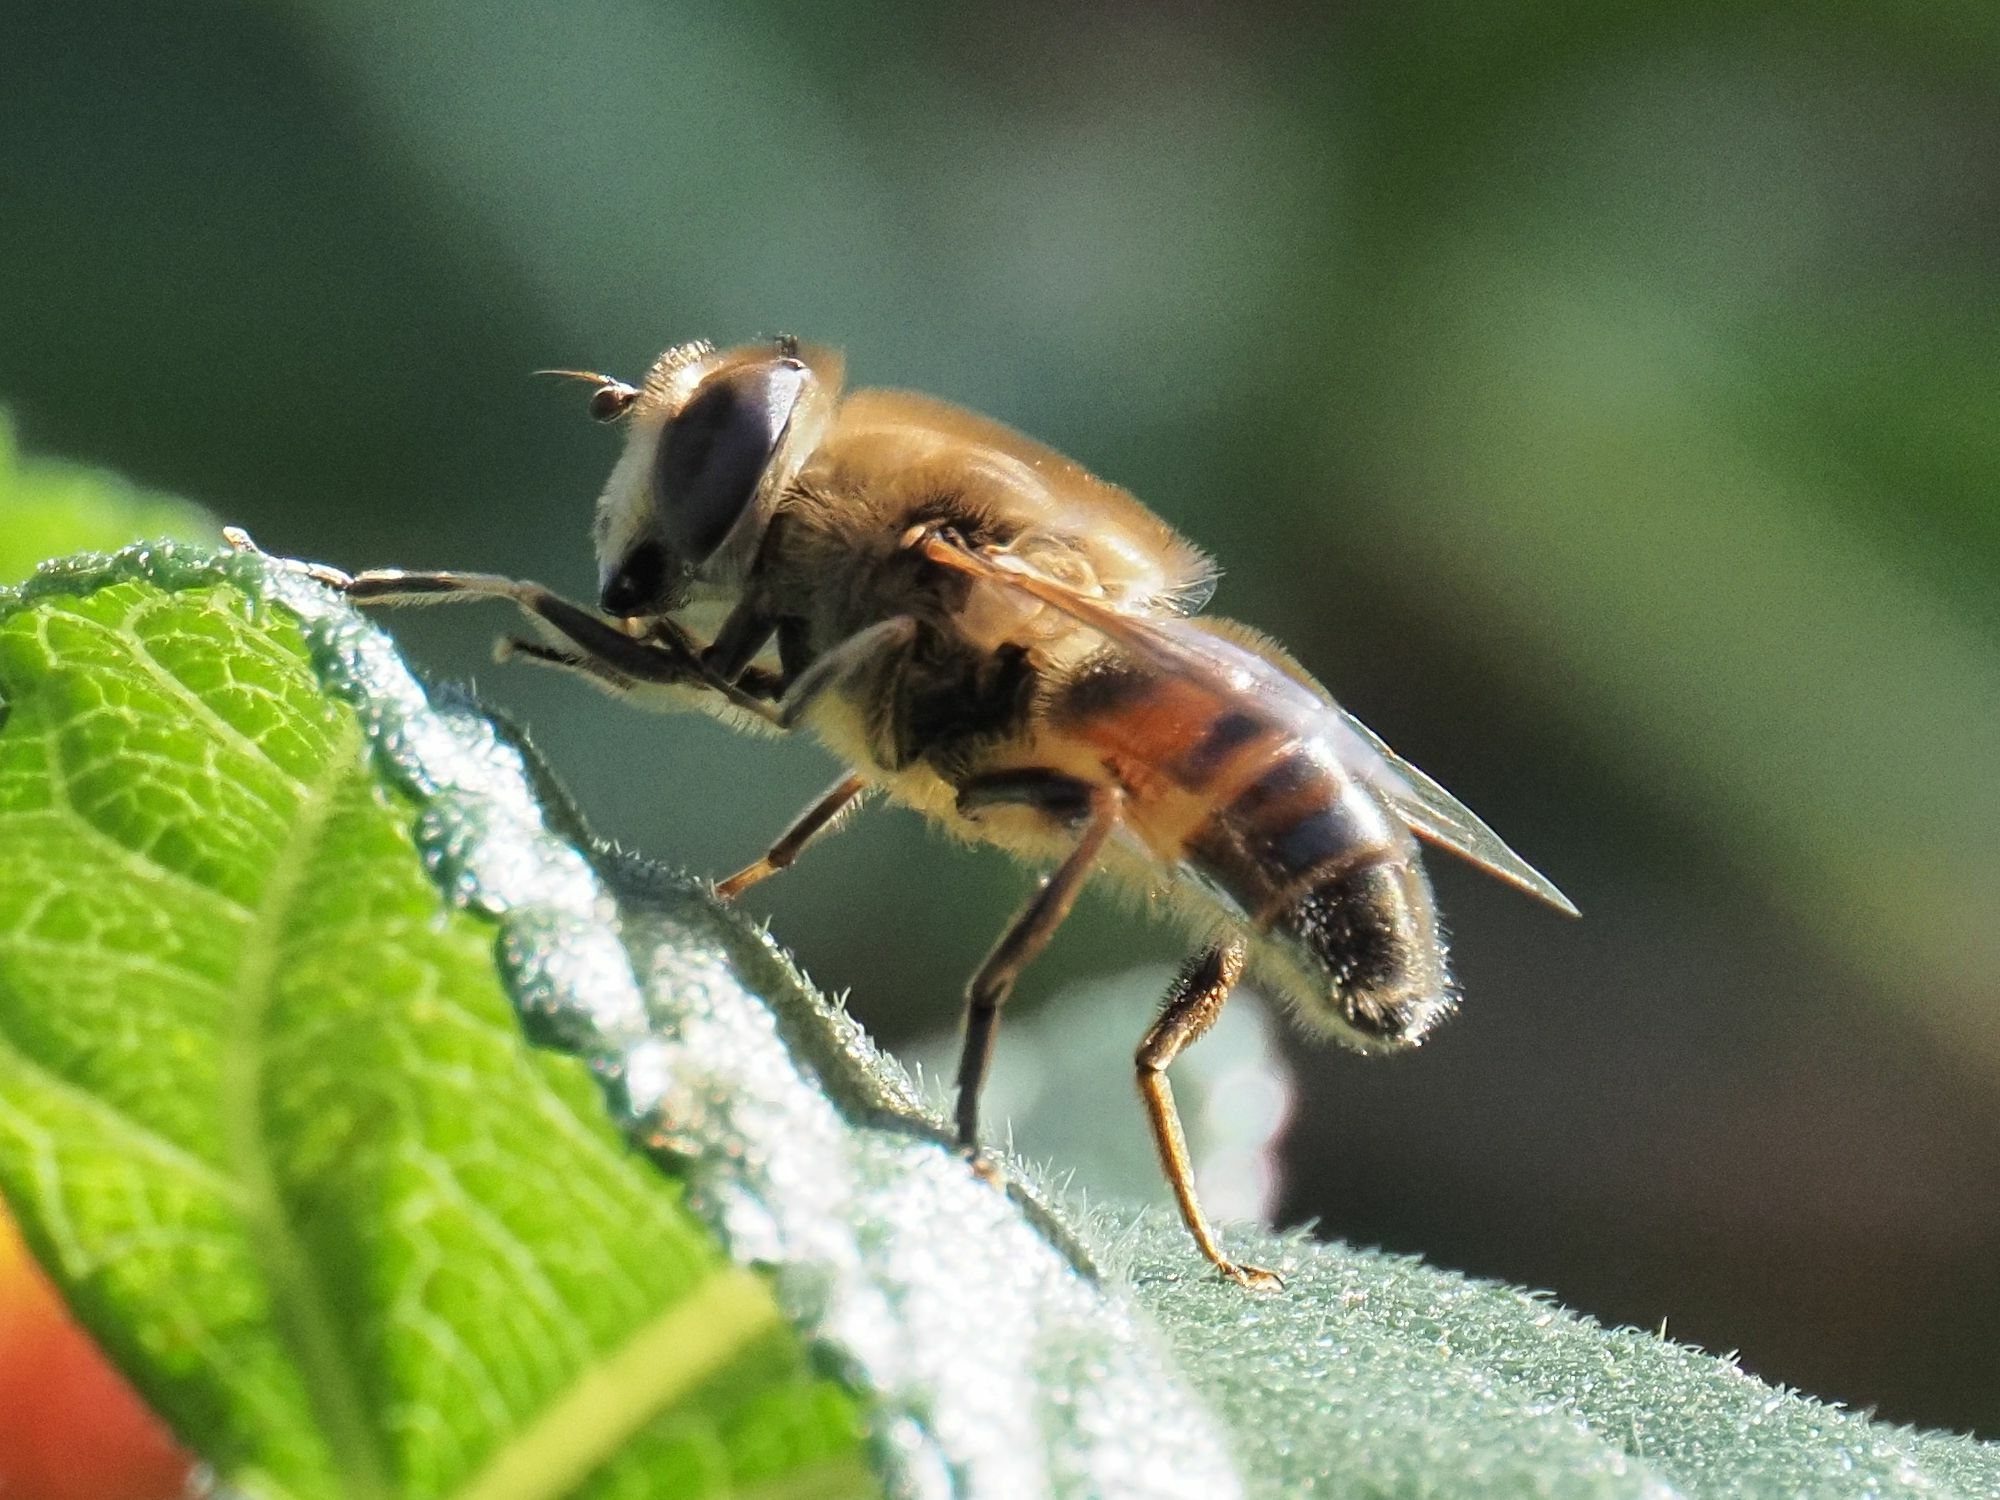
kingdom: Animalia
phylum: Arthropoda
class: Insecta
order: Diptera
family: Syrphidae
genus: Eristalis
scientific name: Eristalis tenax
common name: Drone fly
